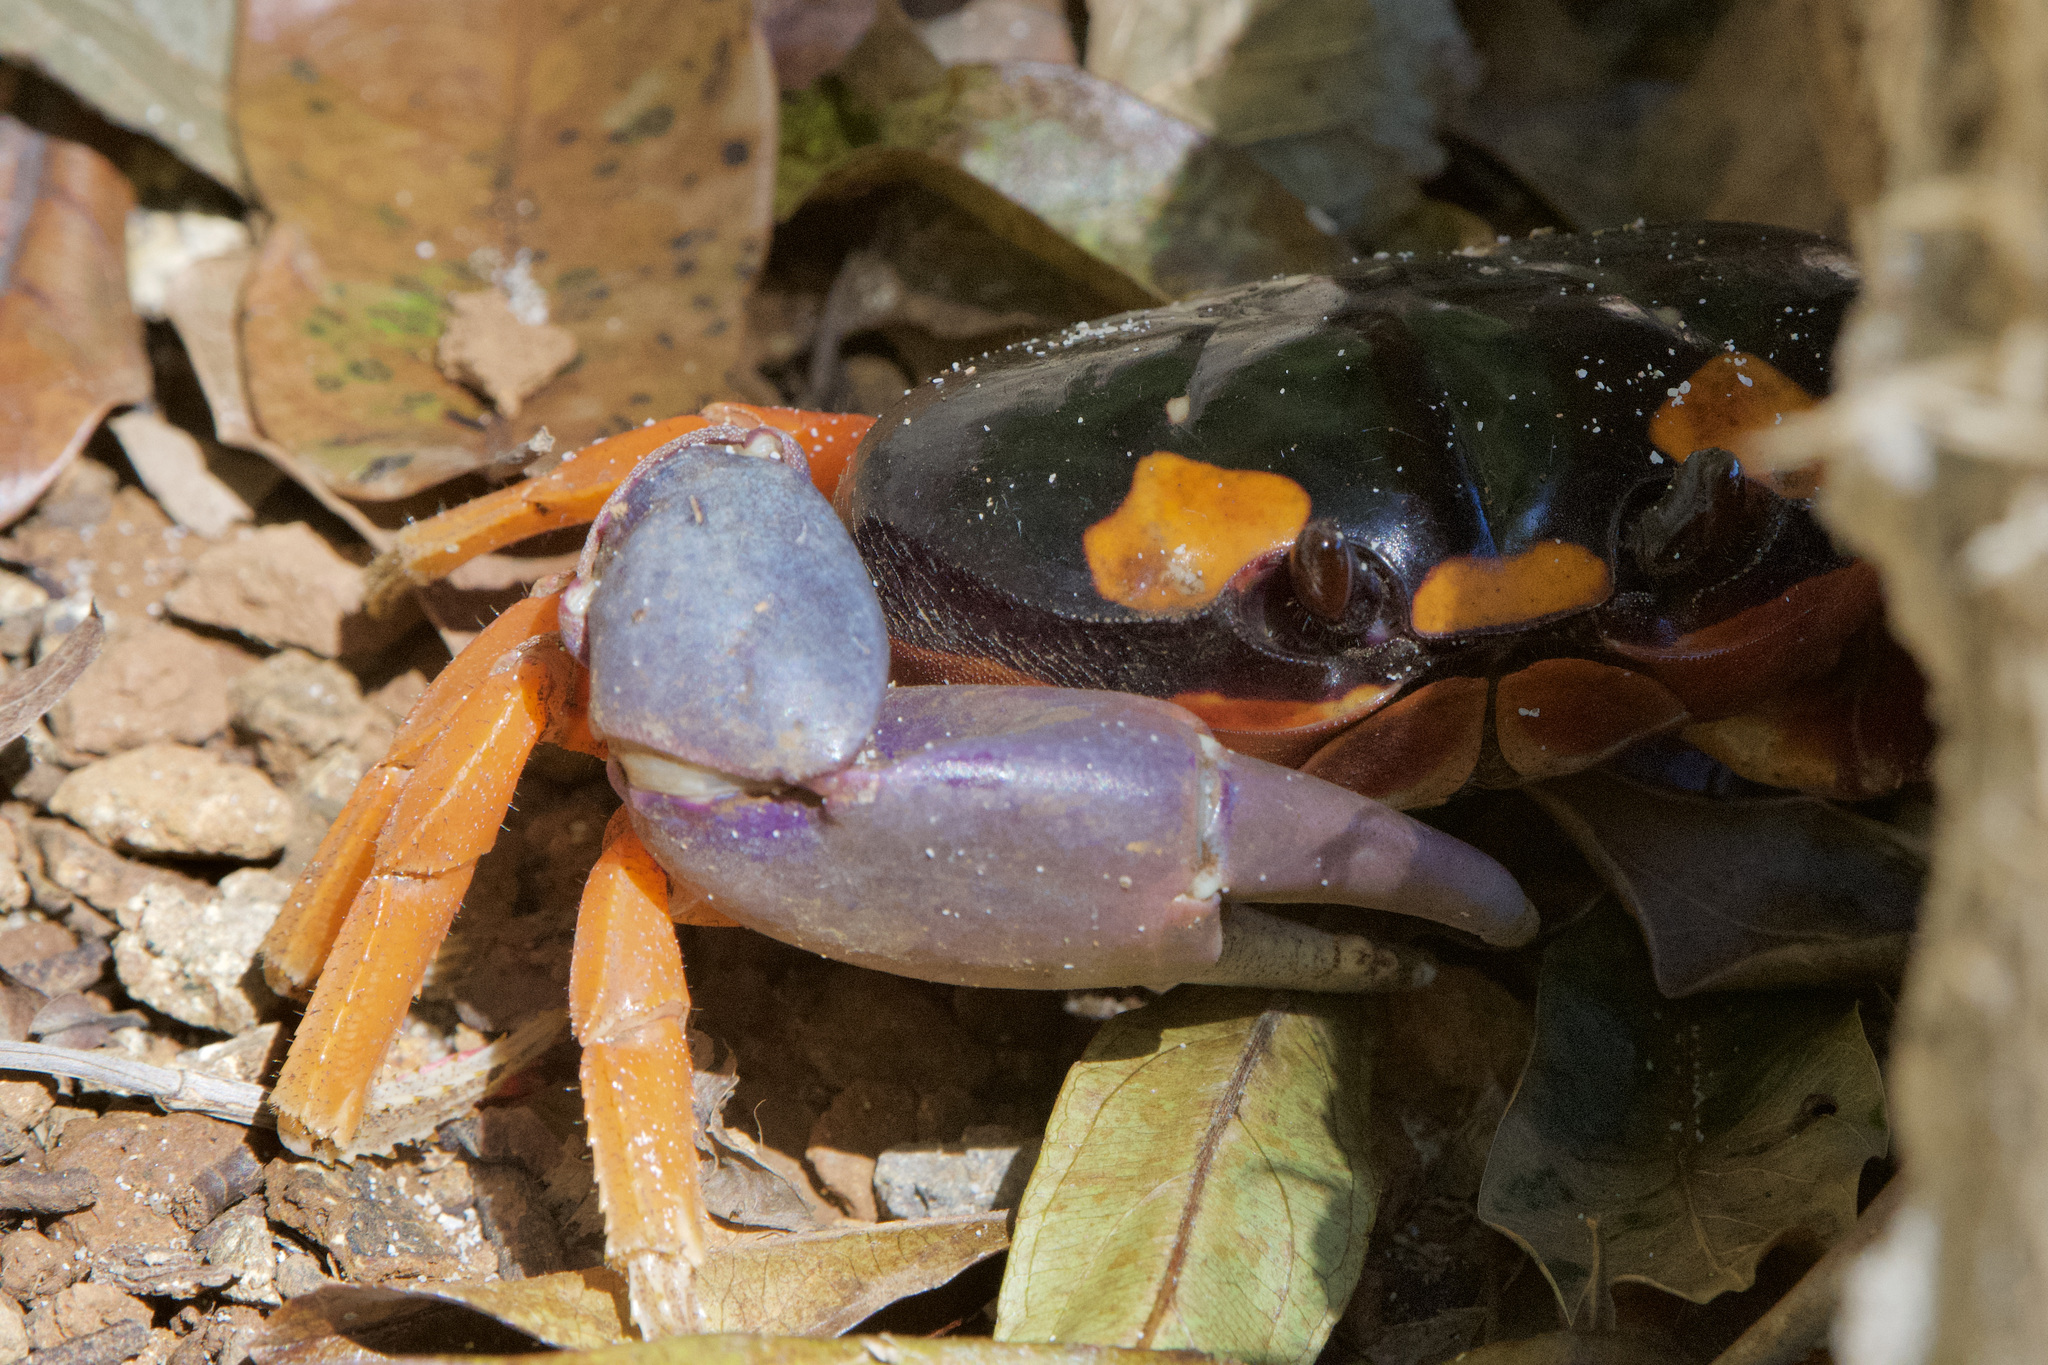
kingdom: Animalia
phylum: Arthropoda
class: Malacostraca
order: Decapoda
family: Gecarcinidae
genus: Gecarcinus
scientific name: Gecarcinus quadratus
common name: Halloween crab
